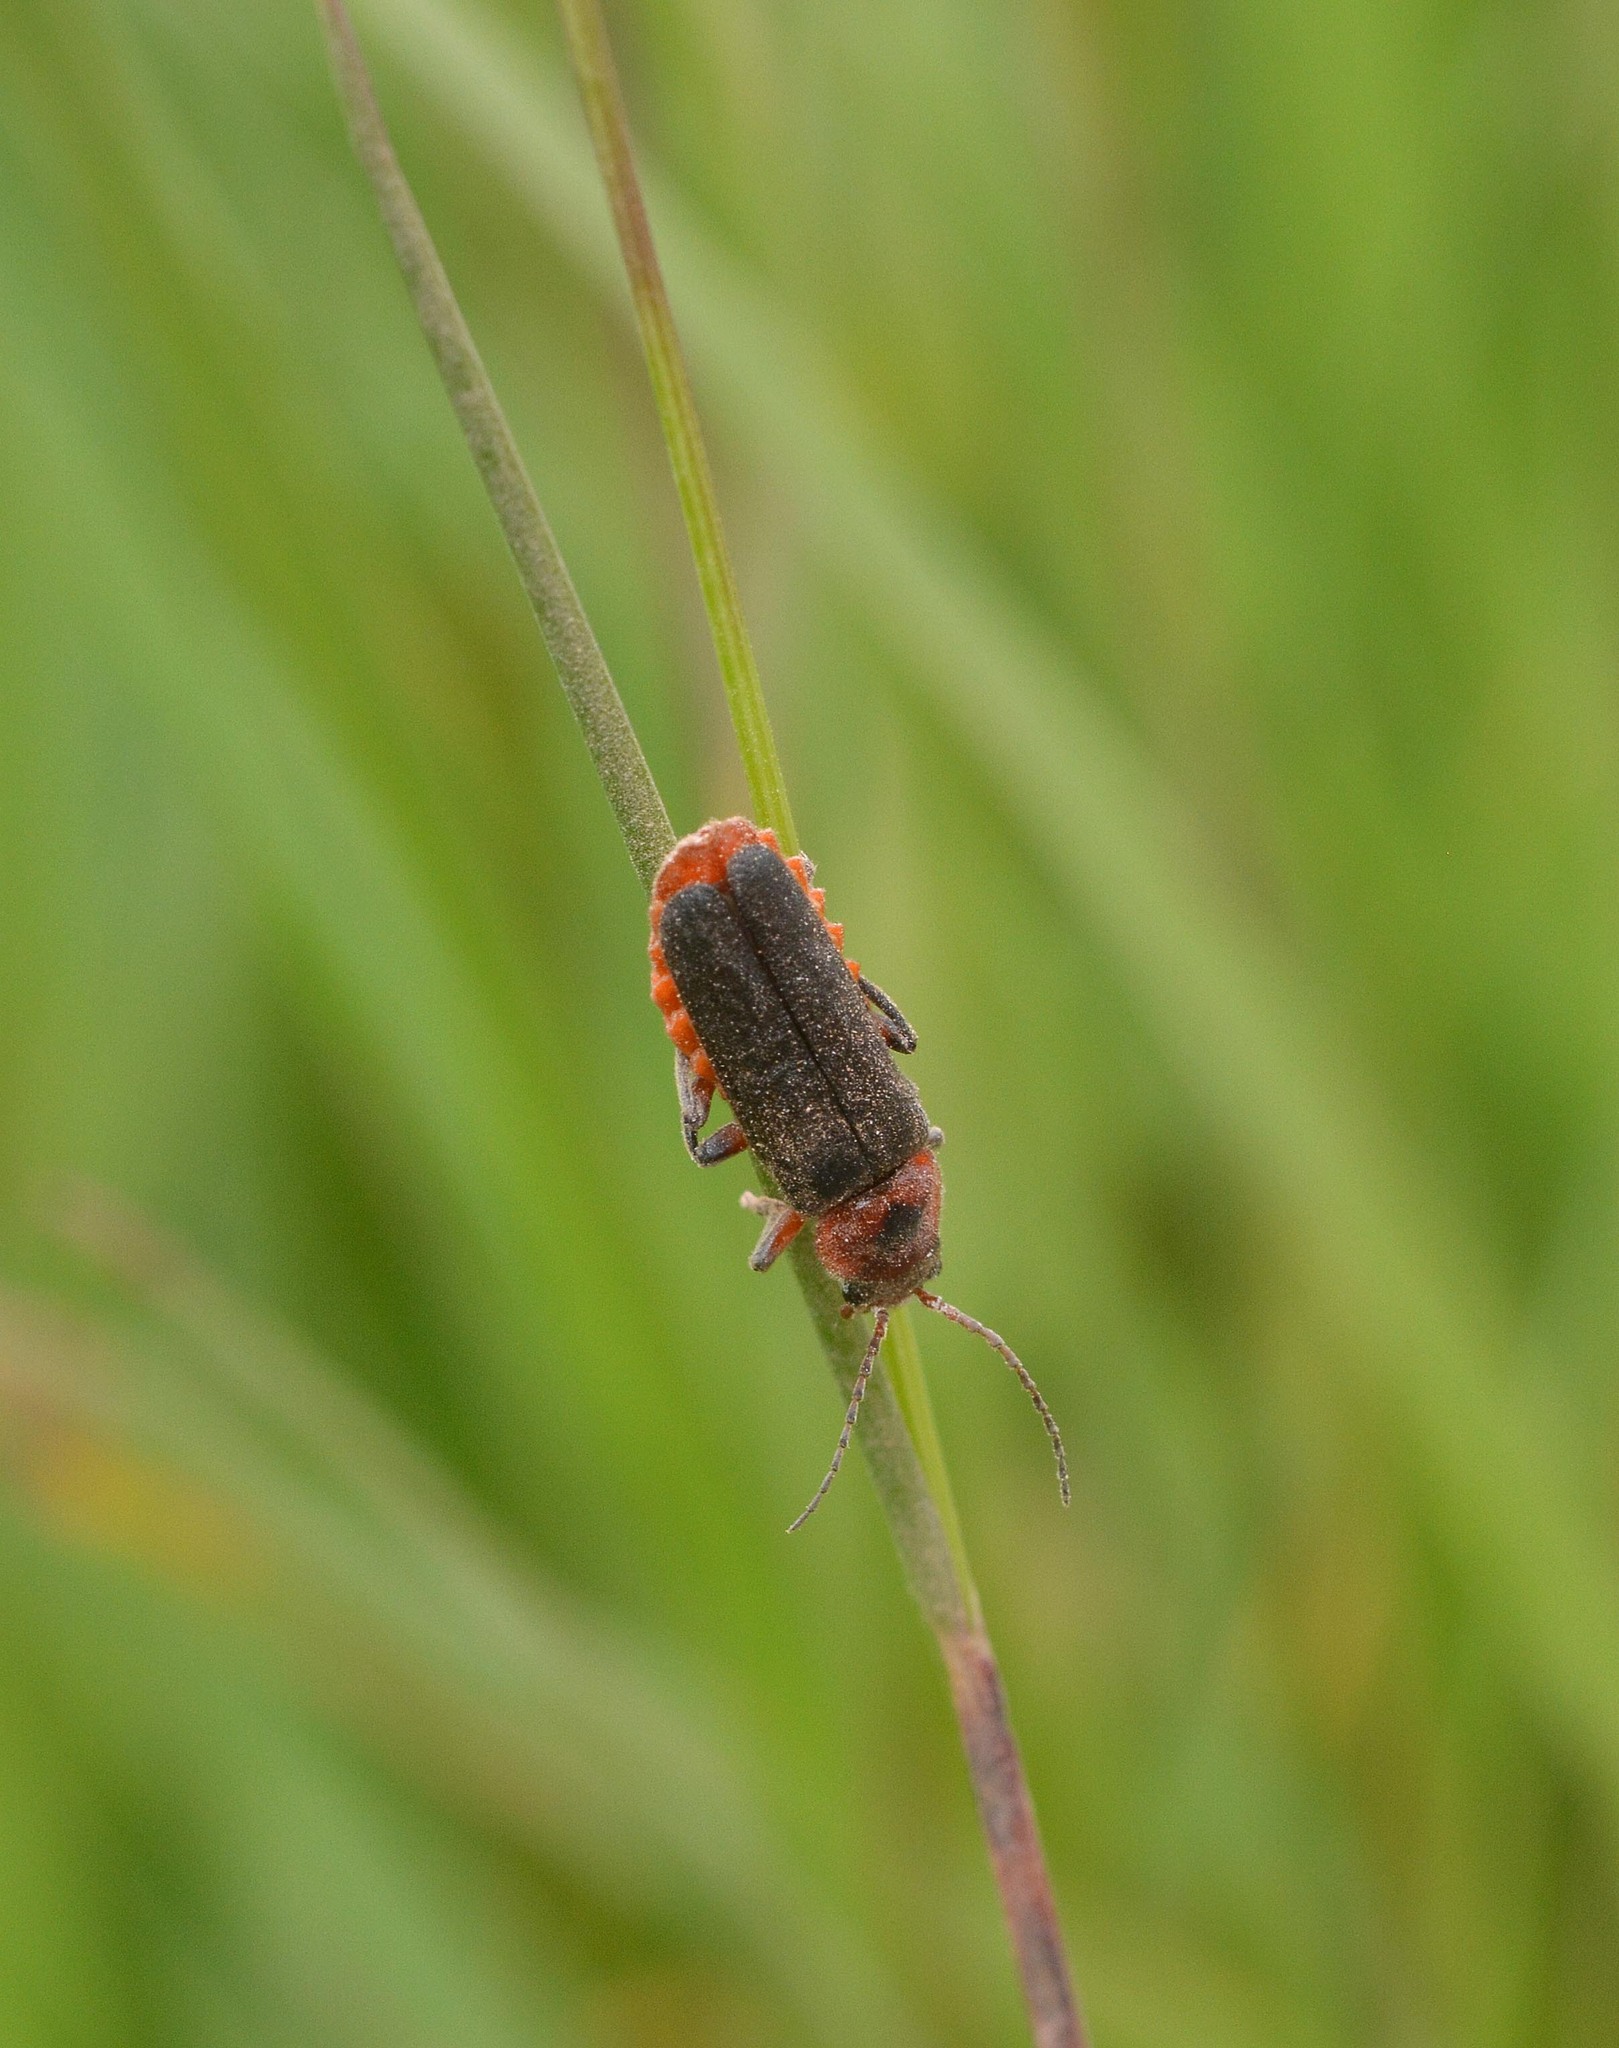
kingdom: Animalia
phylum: Arthropoda
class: Insecta
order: Coleoptera
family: Cantharidae
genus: Cantharis
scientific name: Cantharis rustica
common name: Soldier beetle
